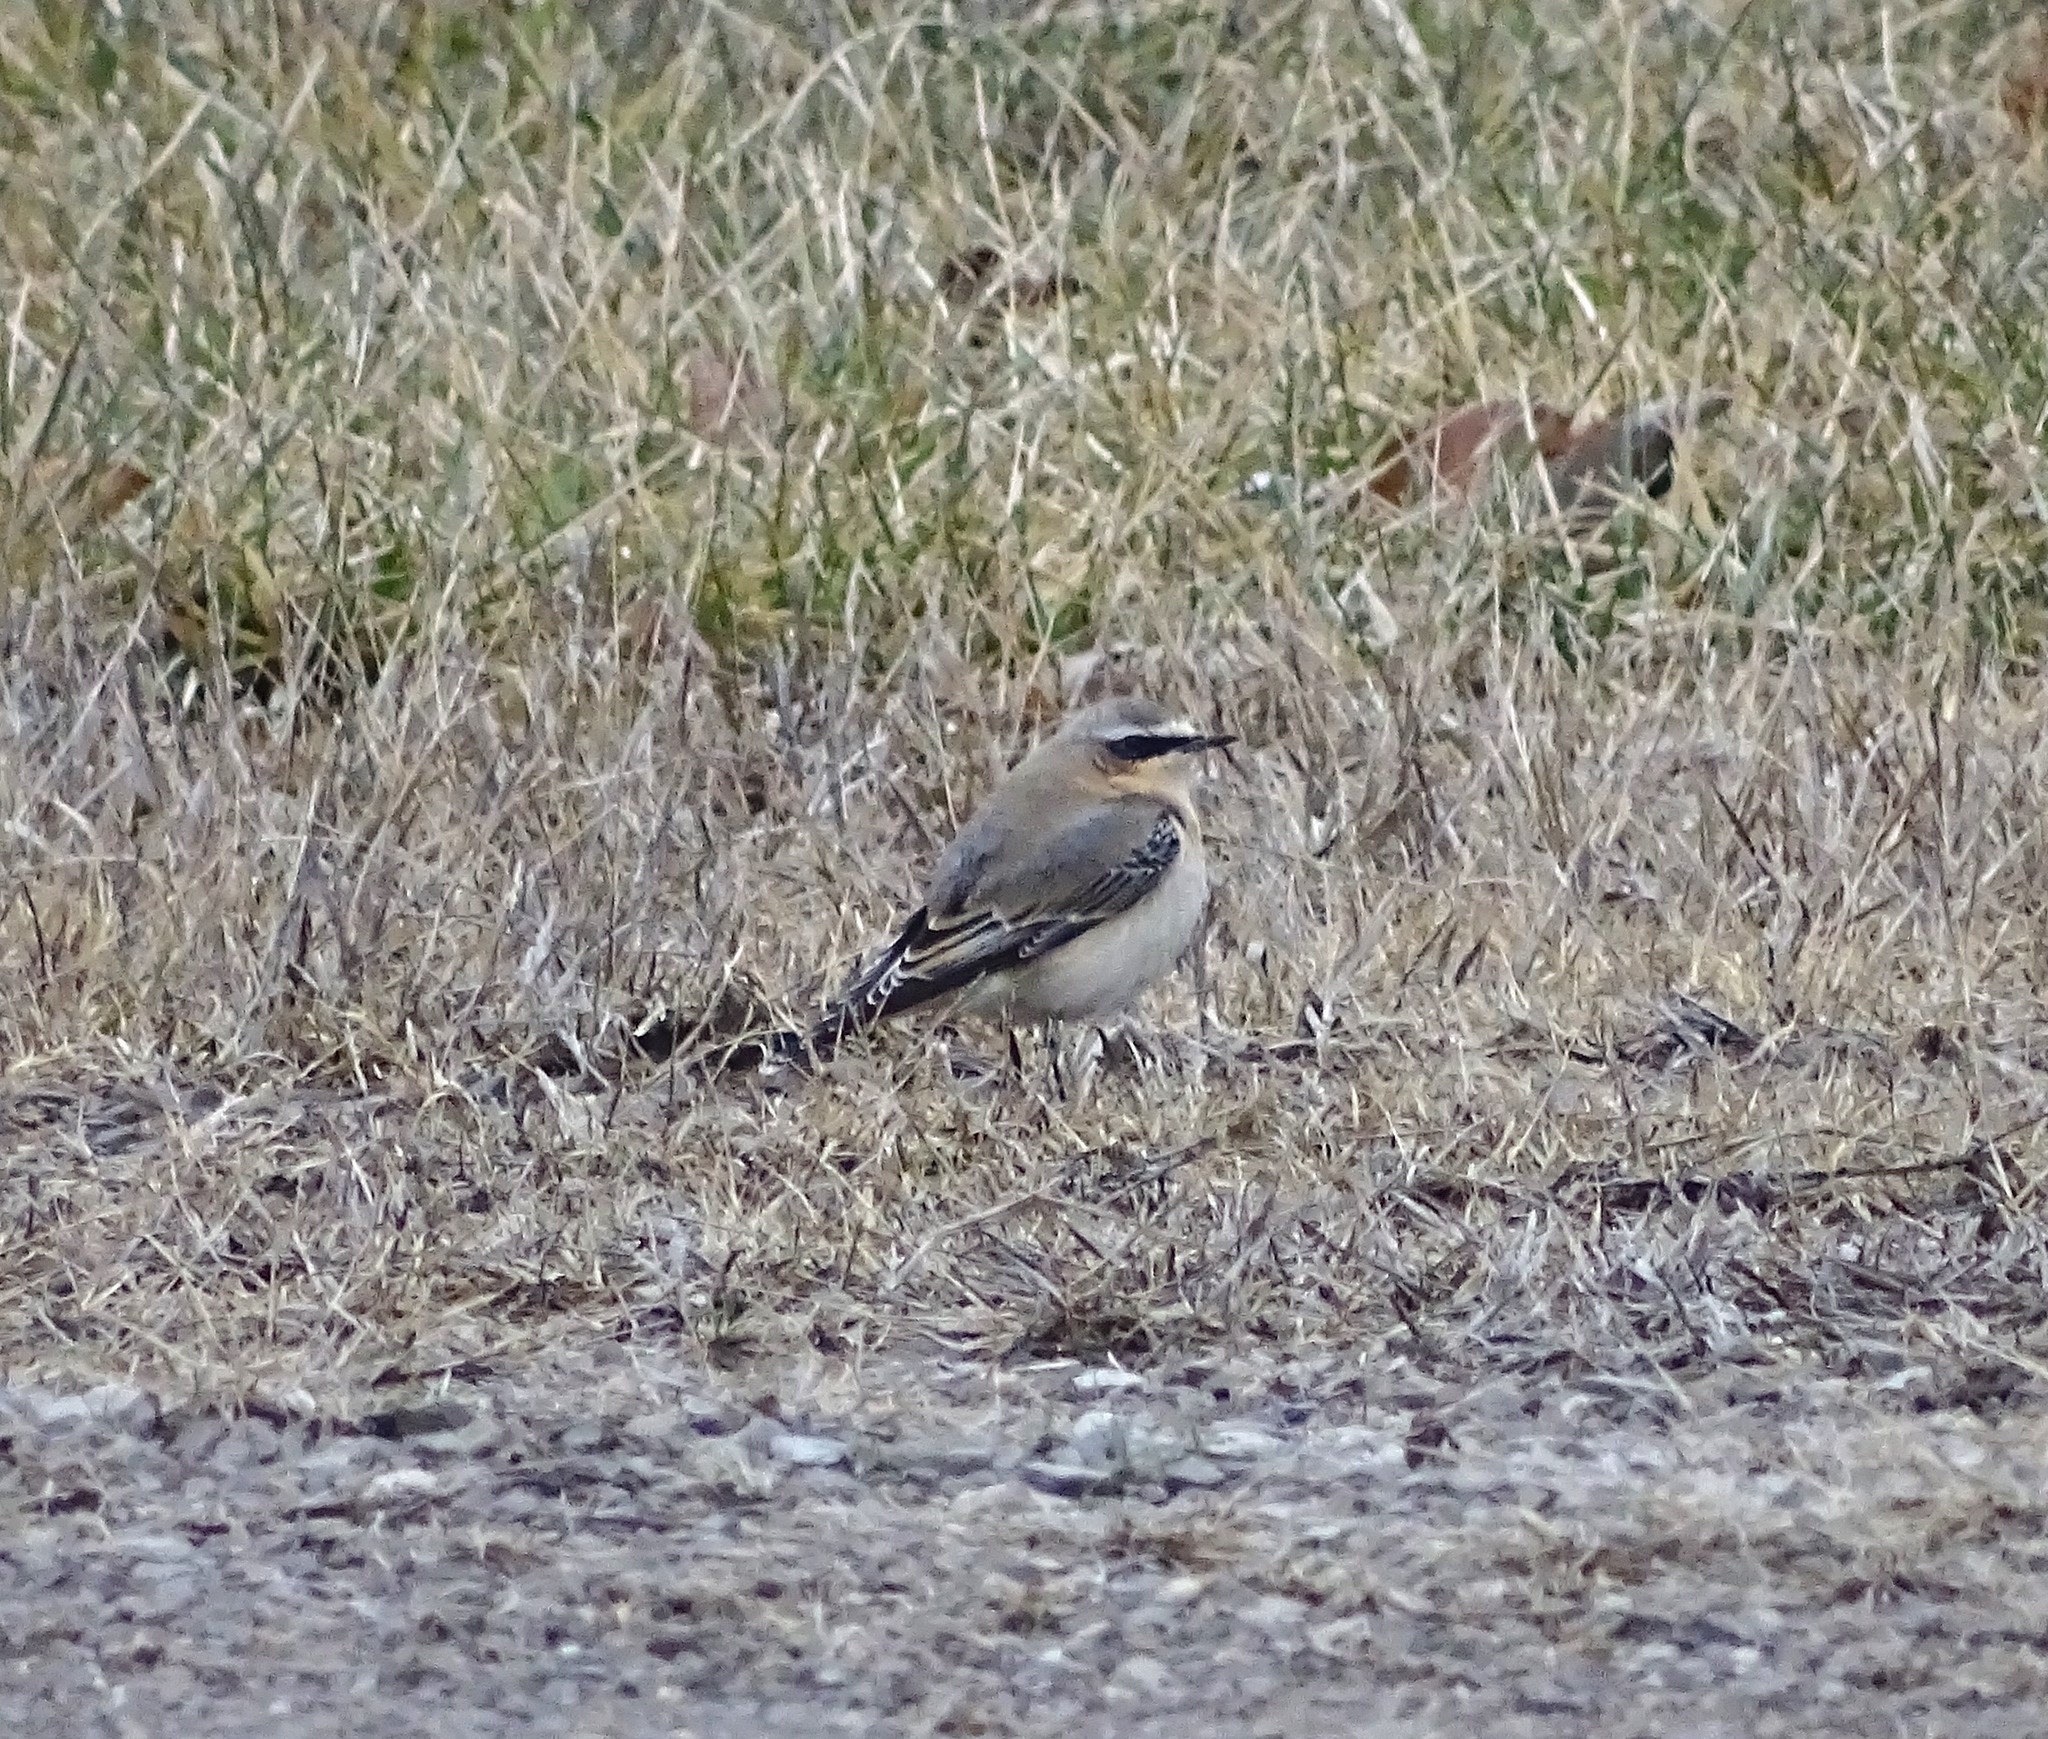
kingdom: Animalia
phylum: Chordata
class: Aves
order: Passeriformes
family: Muscicapidae
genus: Oenanthe
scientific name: Oenanthe oenanthe
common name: Northern wheatear
